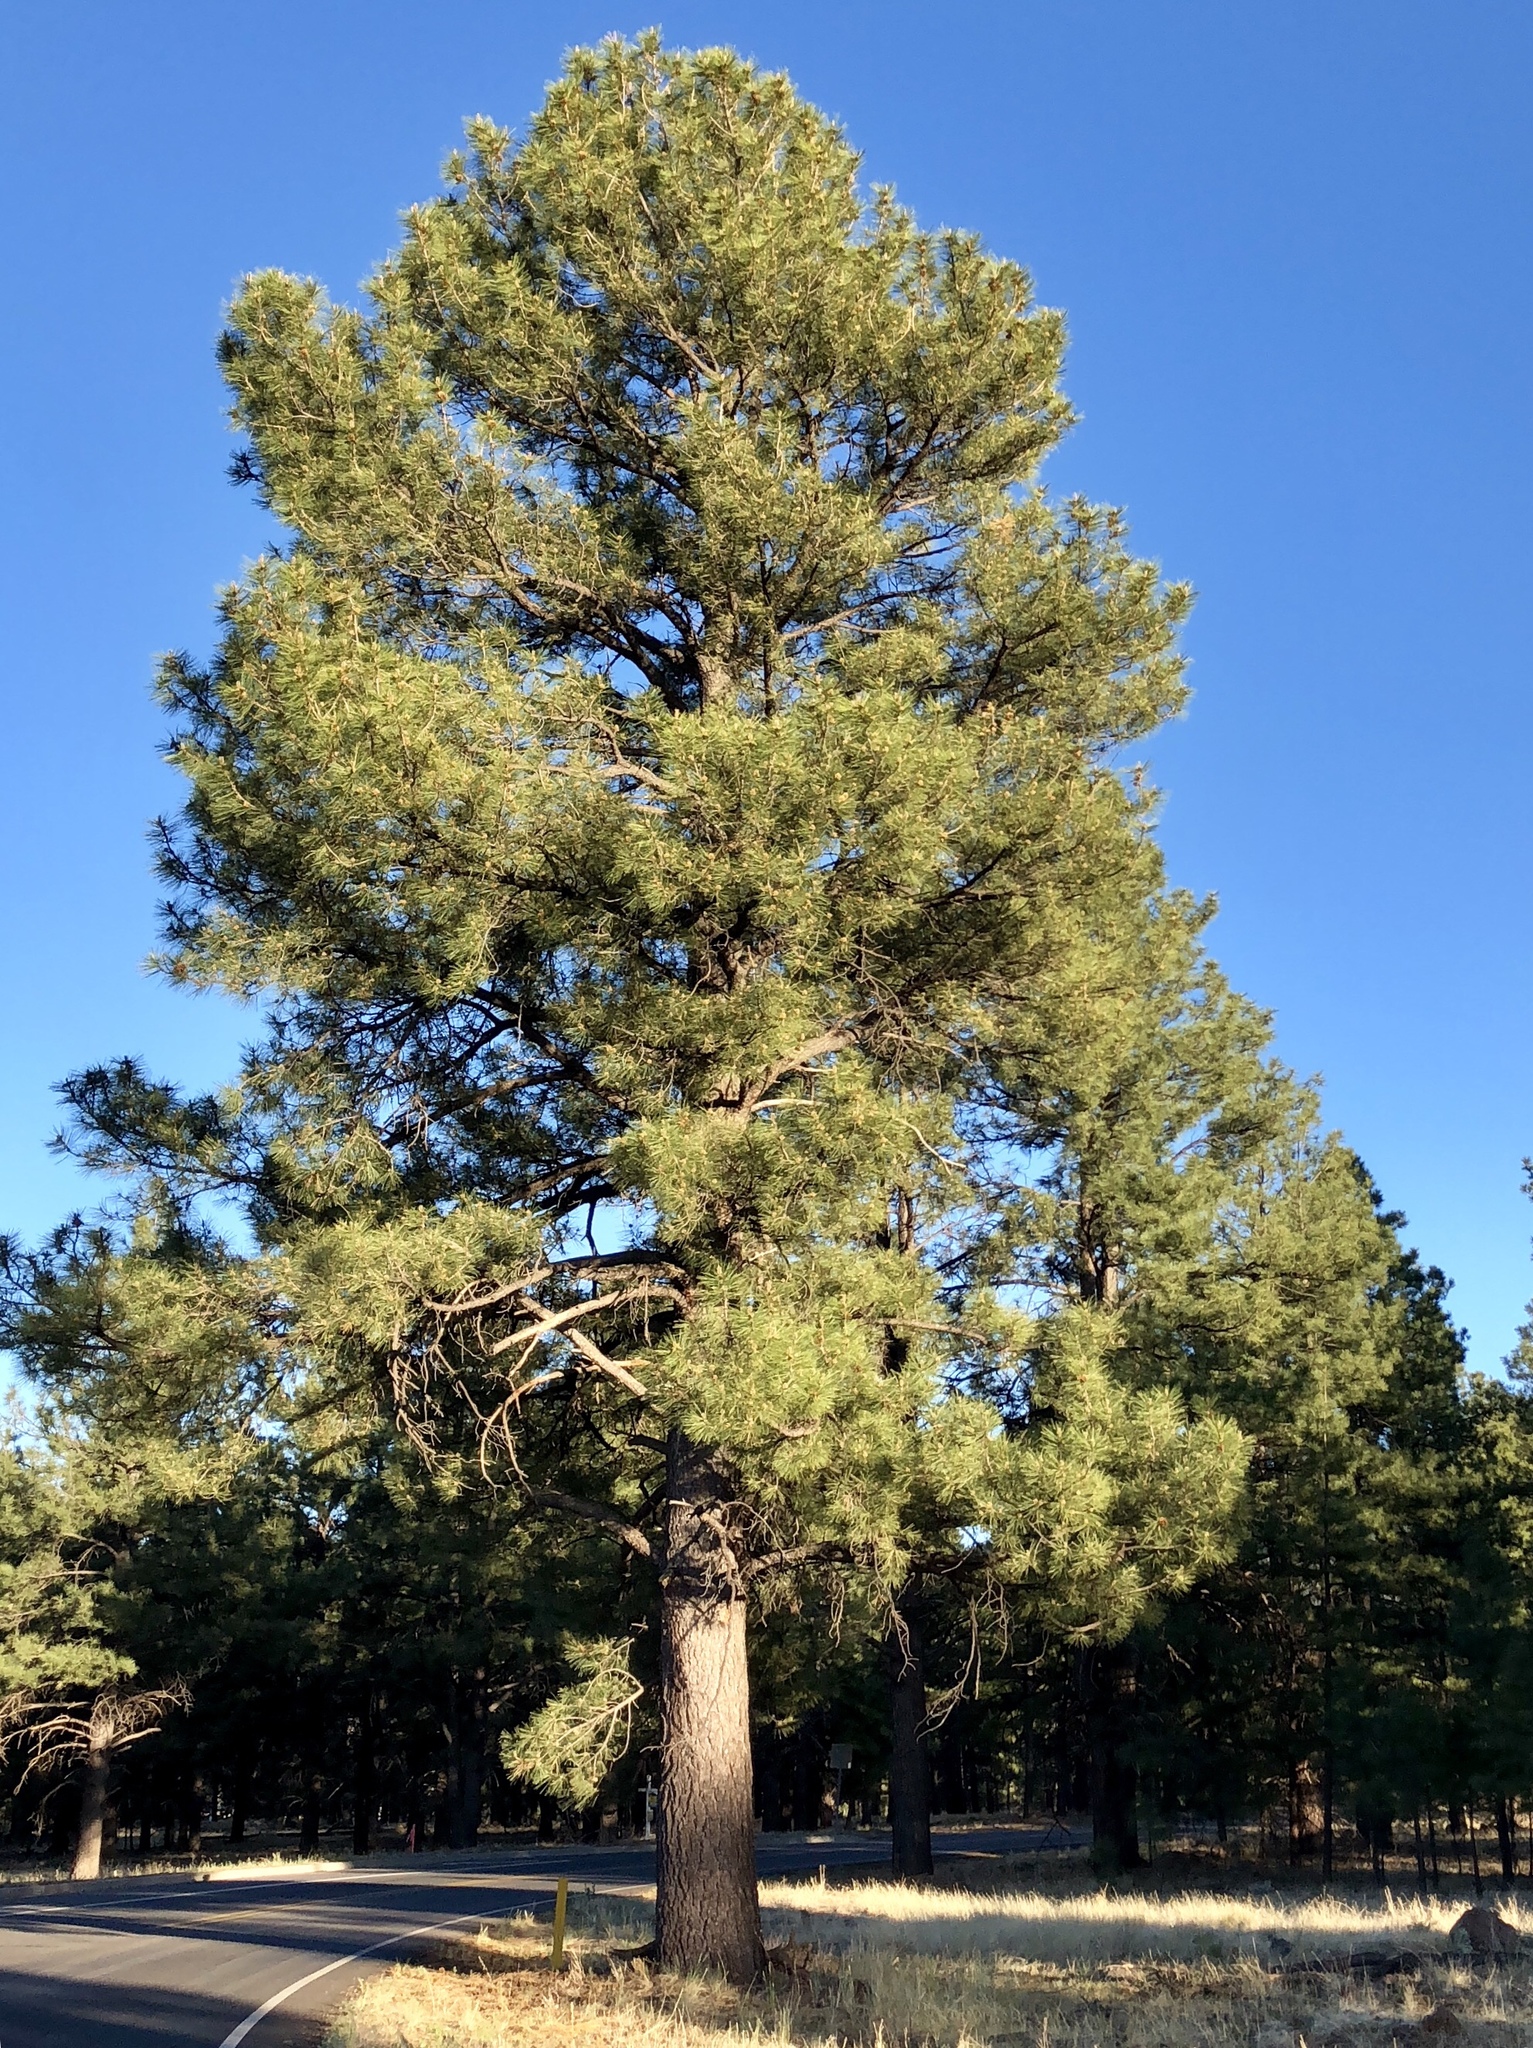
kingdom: Plantae
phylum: Tracheophyta
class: Pinopsida
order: Pinales
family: Pinaceae
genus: Pinus
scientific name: Pinus ponderosa
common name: Western yellow-pine
